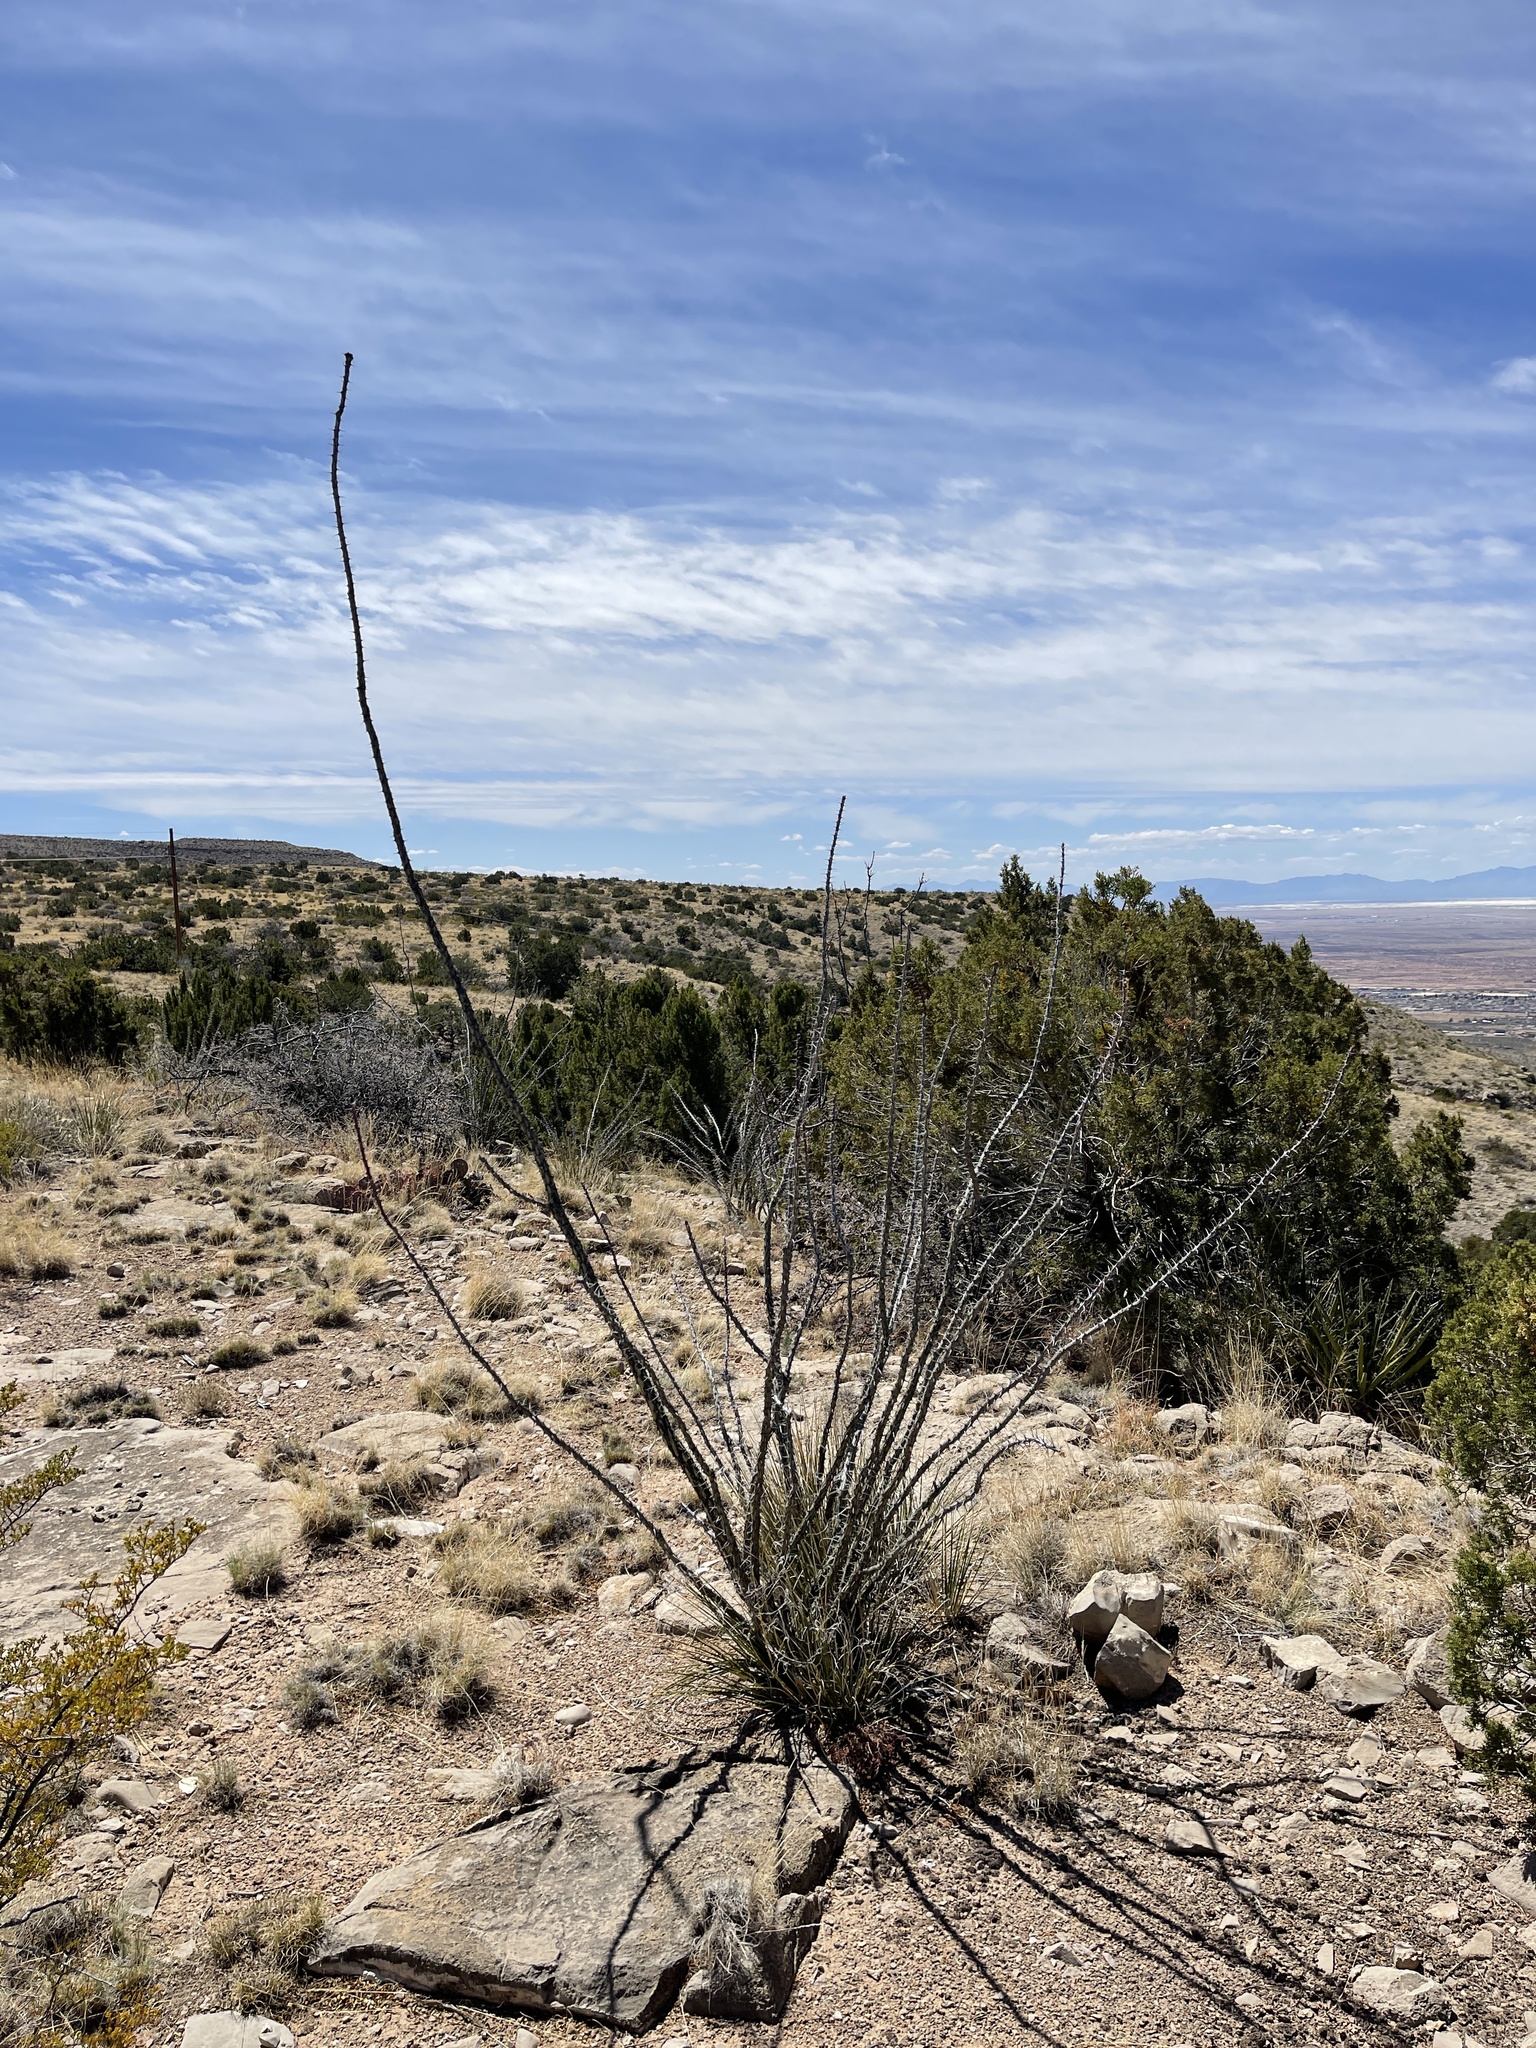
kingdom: Plantae
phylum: Tracheophyta
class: Magnoliopsida
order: Ericales
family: Fouquieriaceae
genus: Fouquieria
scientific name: Fouquieria splendens
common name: Vine-cactus
